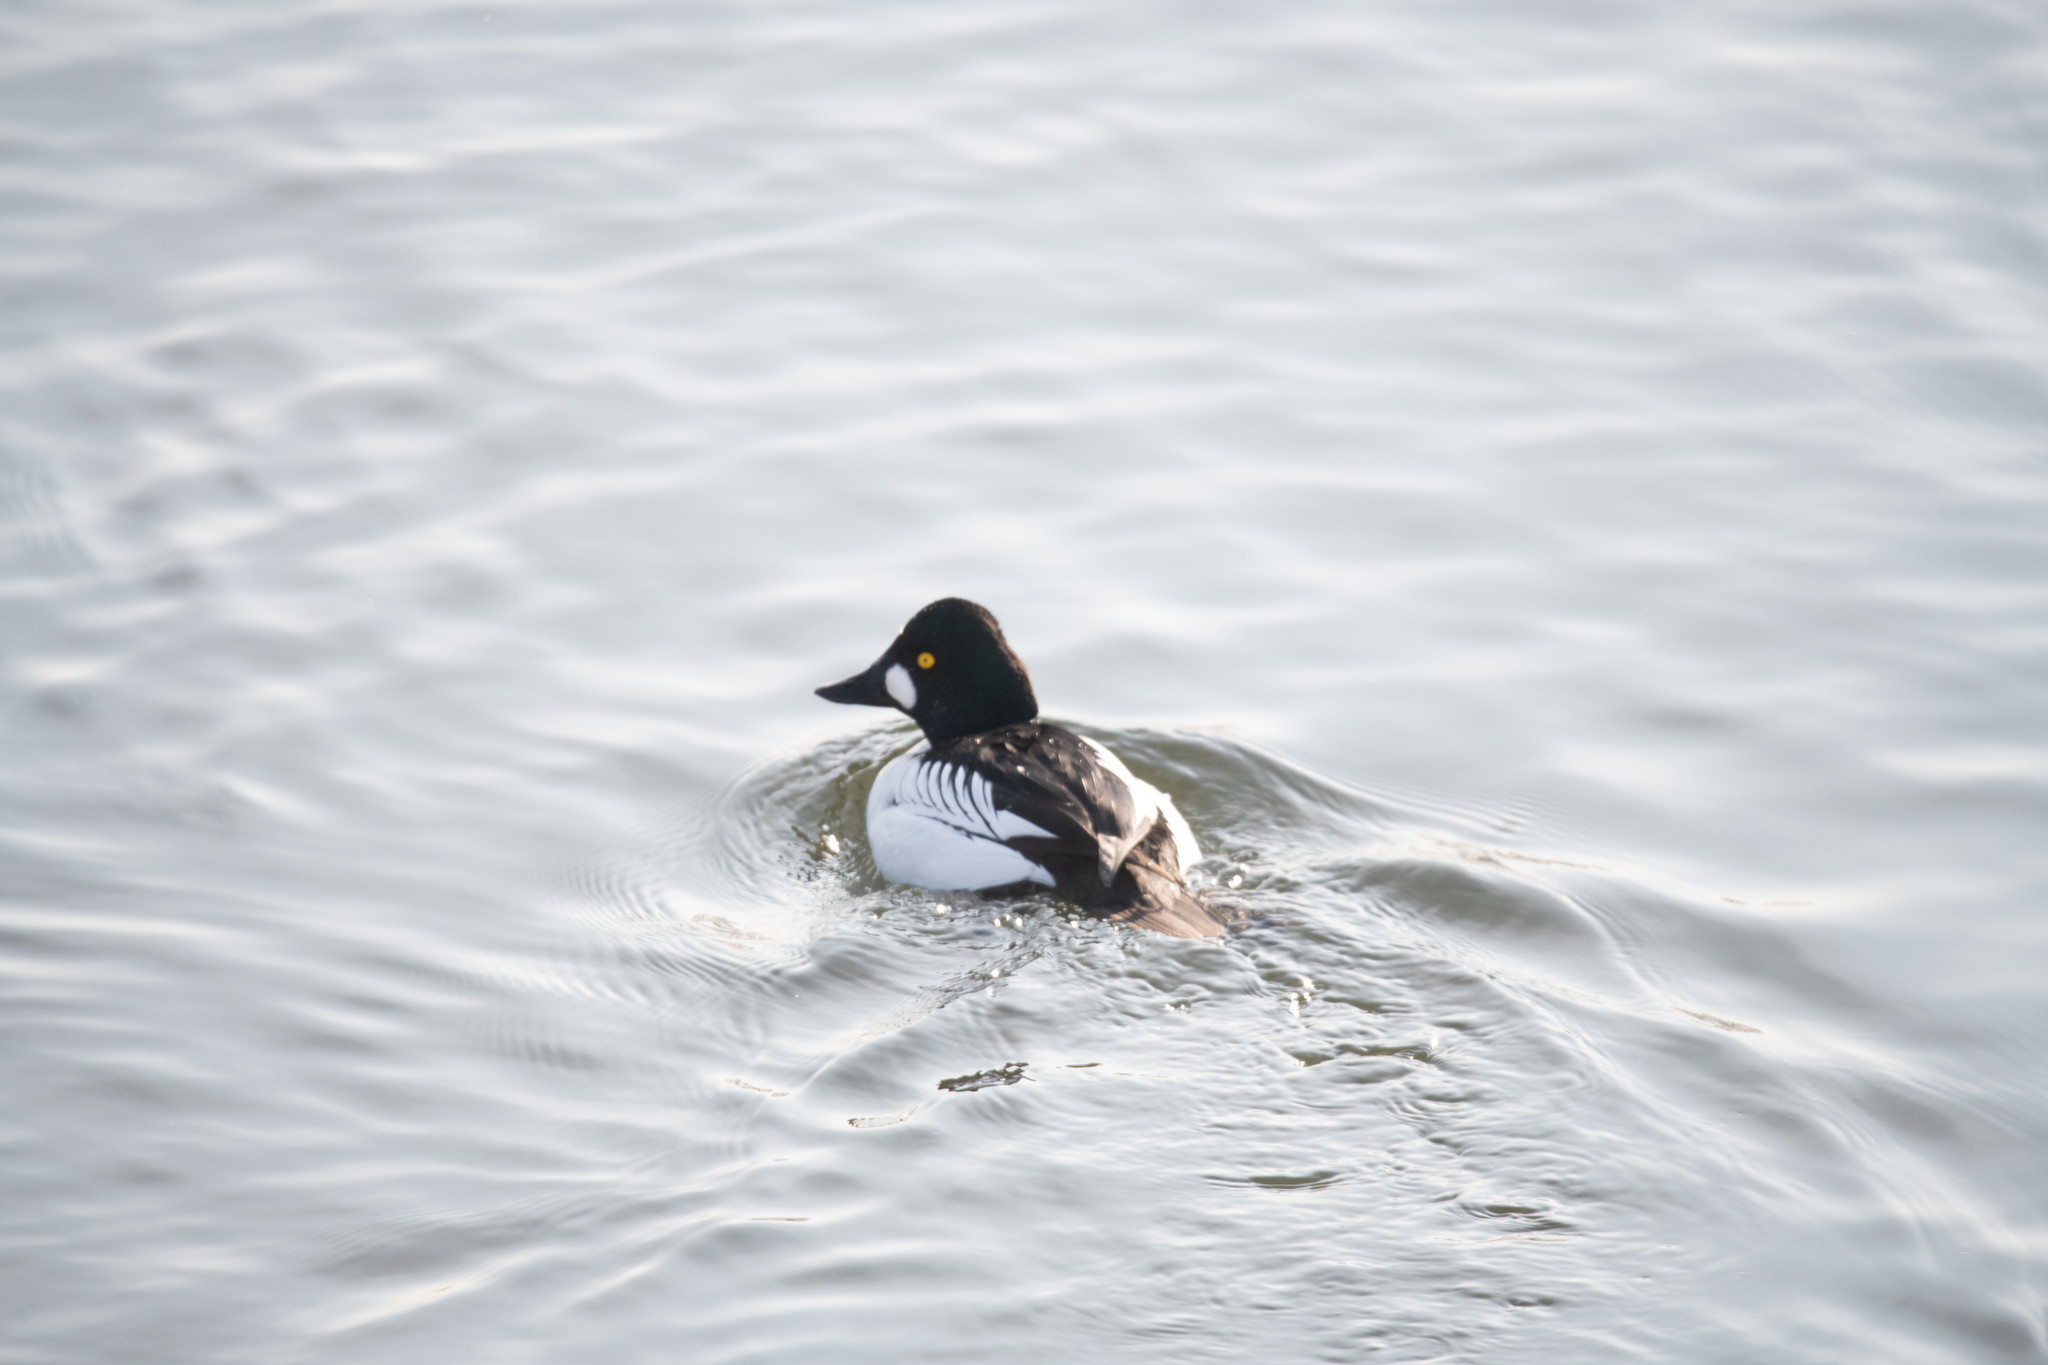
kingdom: Animalia
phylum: Chordata
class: Aves
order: Anseriformes
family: Anatidae
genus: Bucephala
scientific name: Bucephala clangula
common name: Common goldeneye
